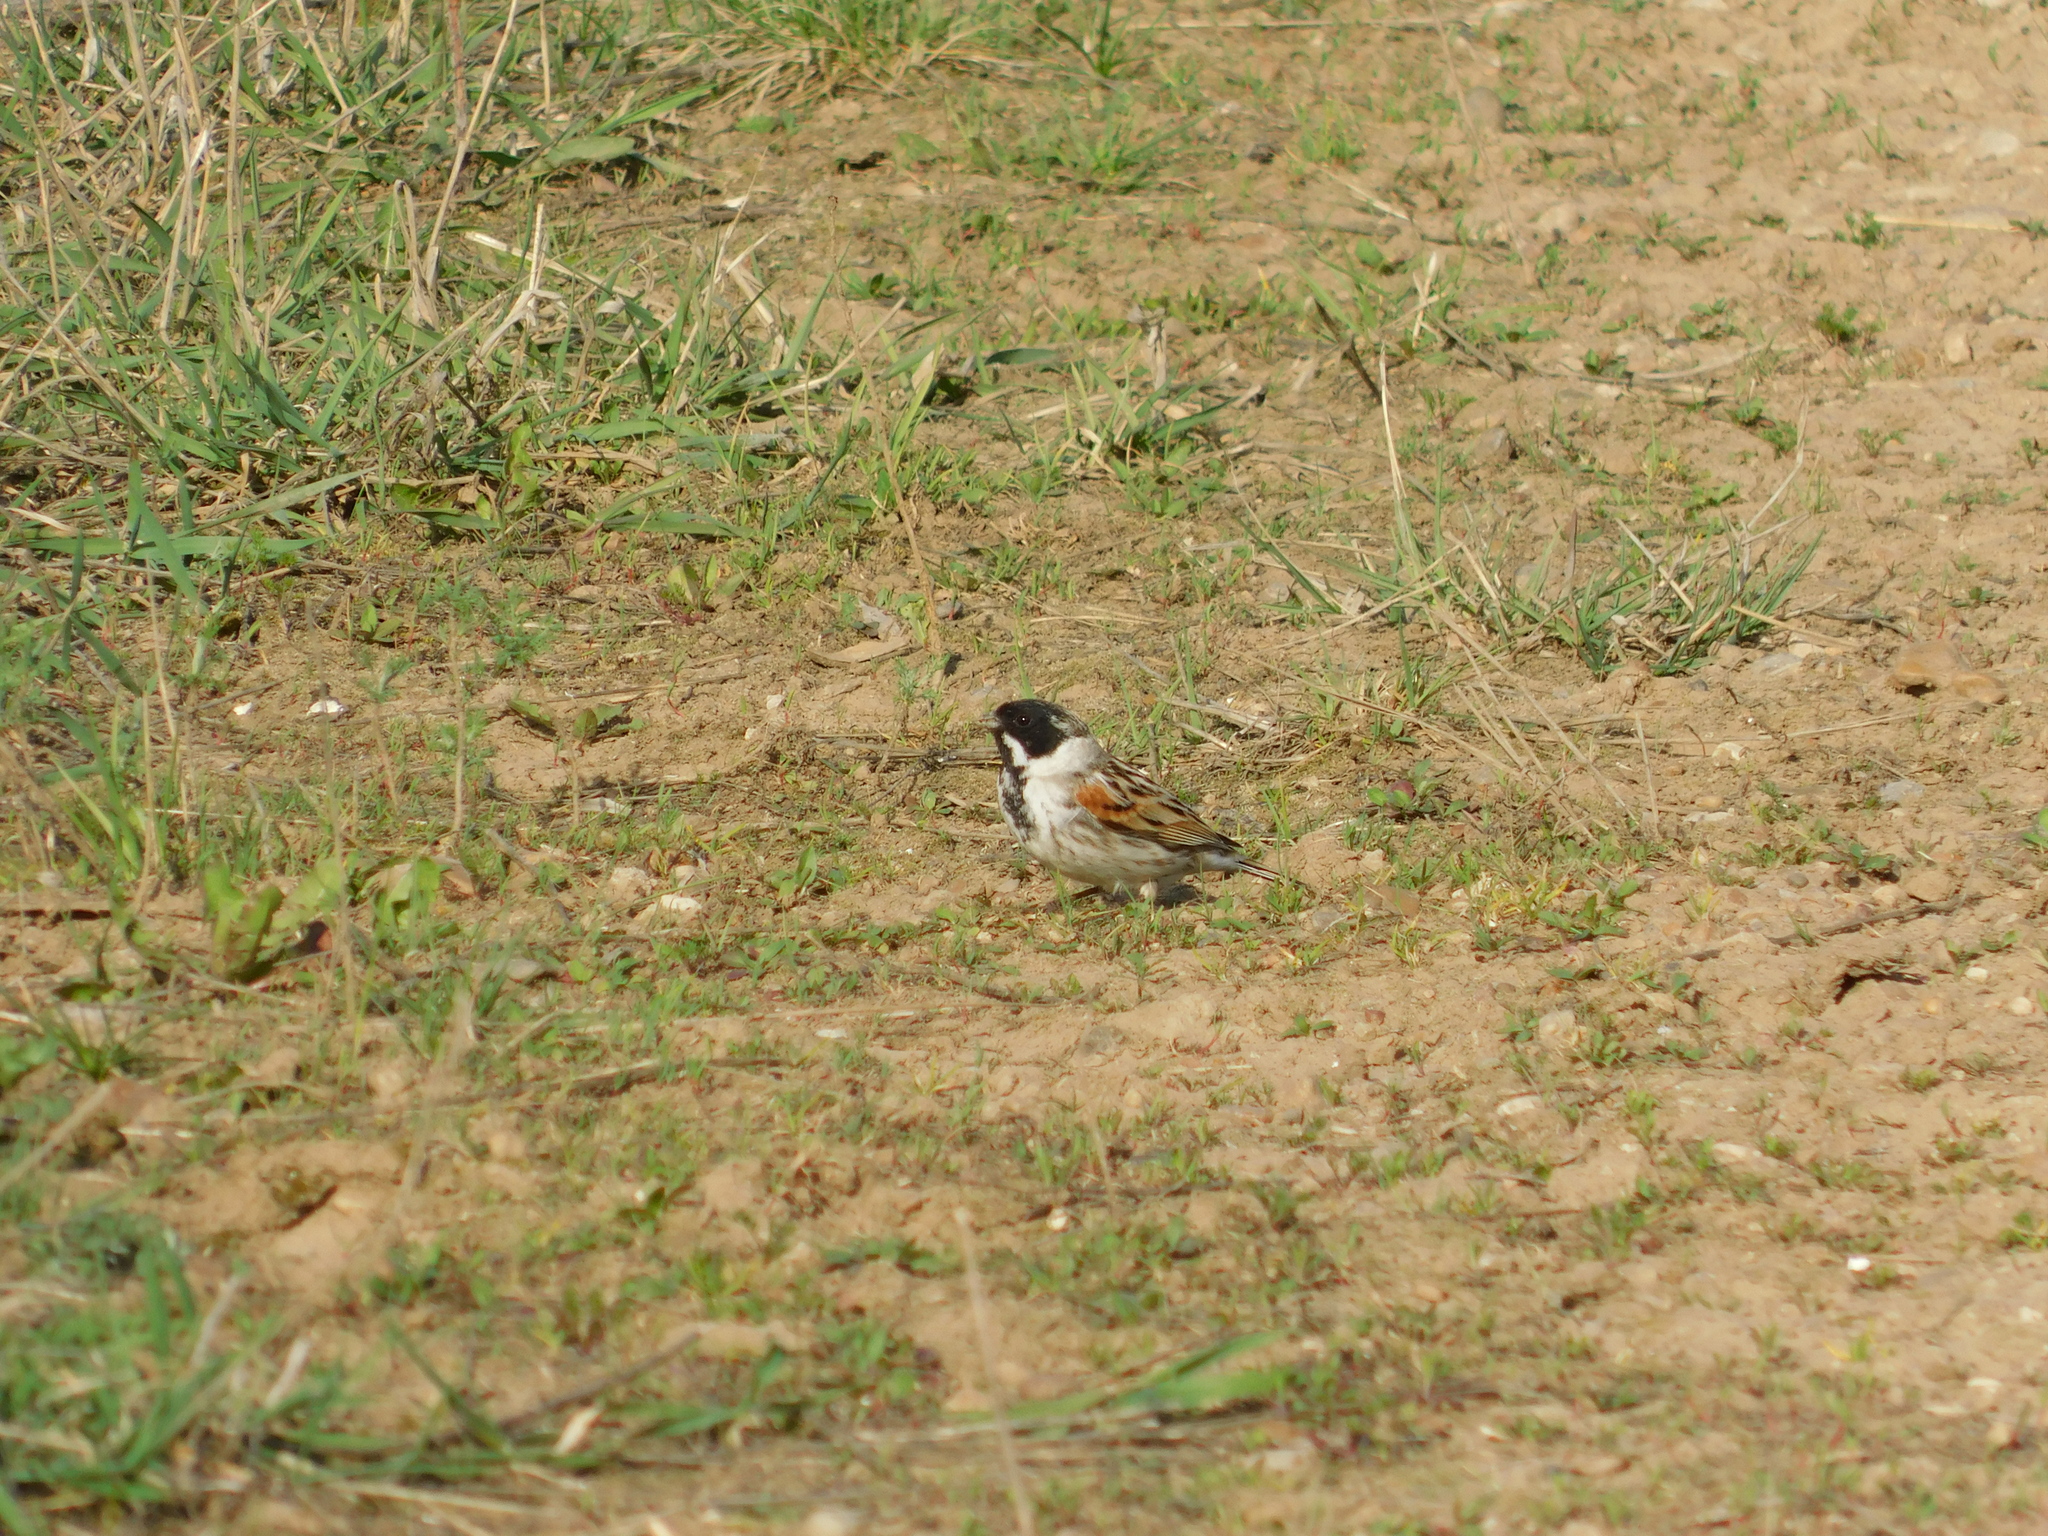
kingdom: Animalia
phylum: Chordata
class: Aves
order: Passeriformes
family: Emberizidae
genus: Emberiza
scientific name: Emberiza schoeniclus
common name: Reed bunting
